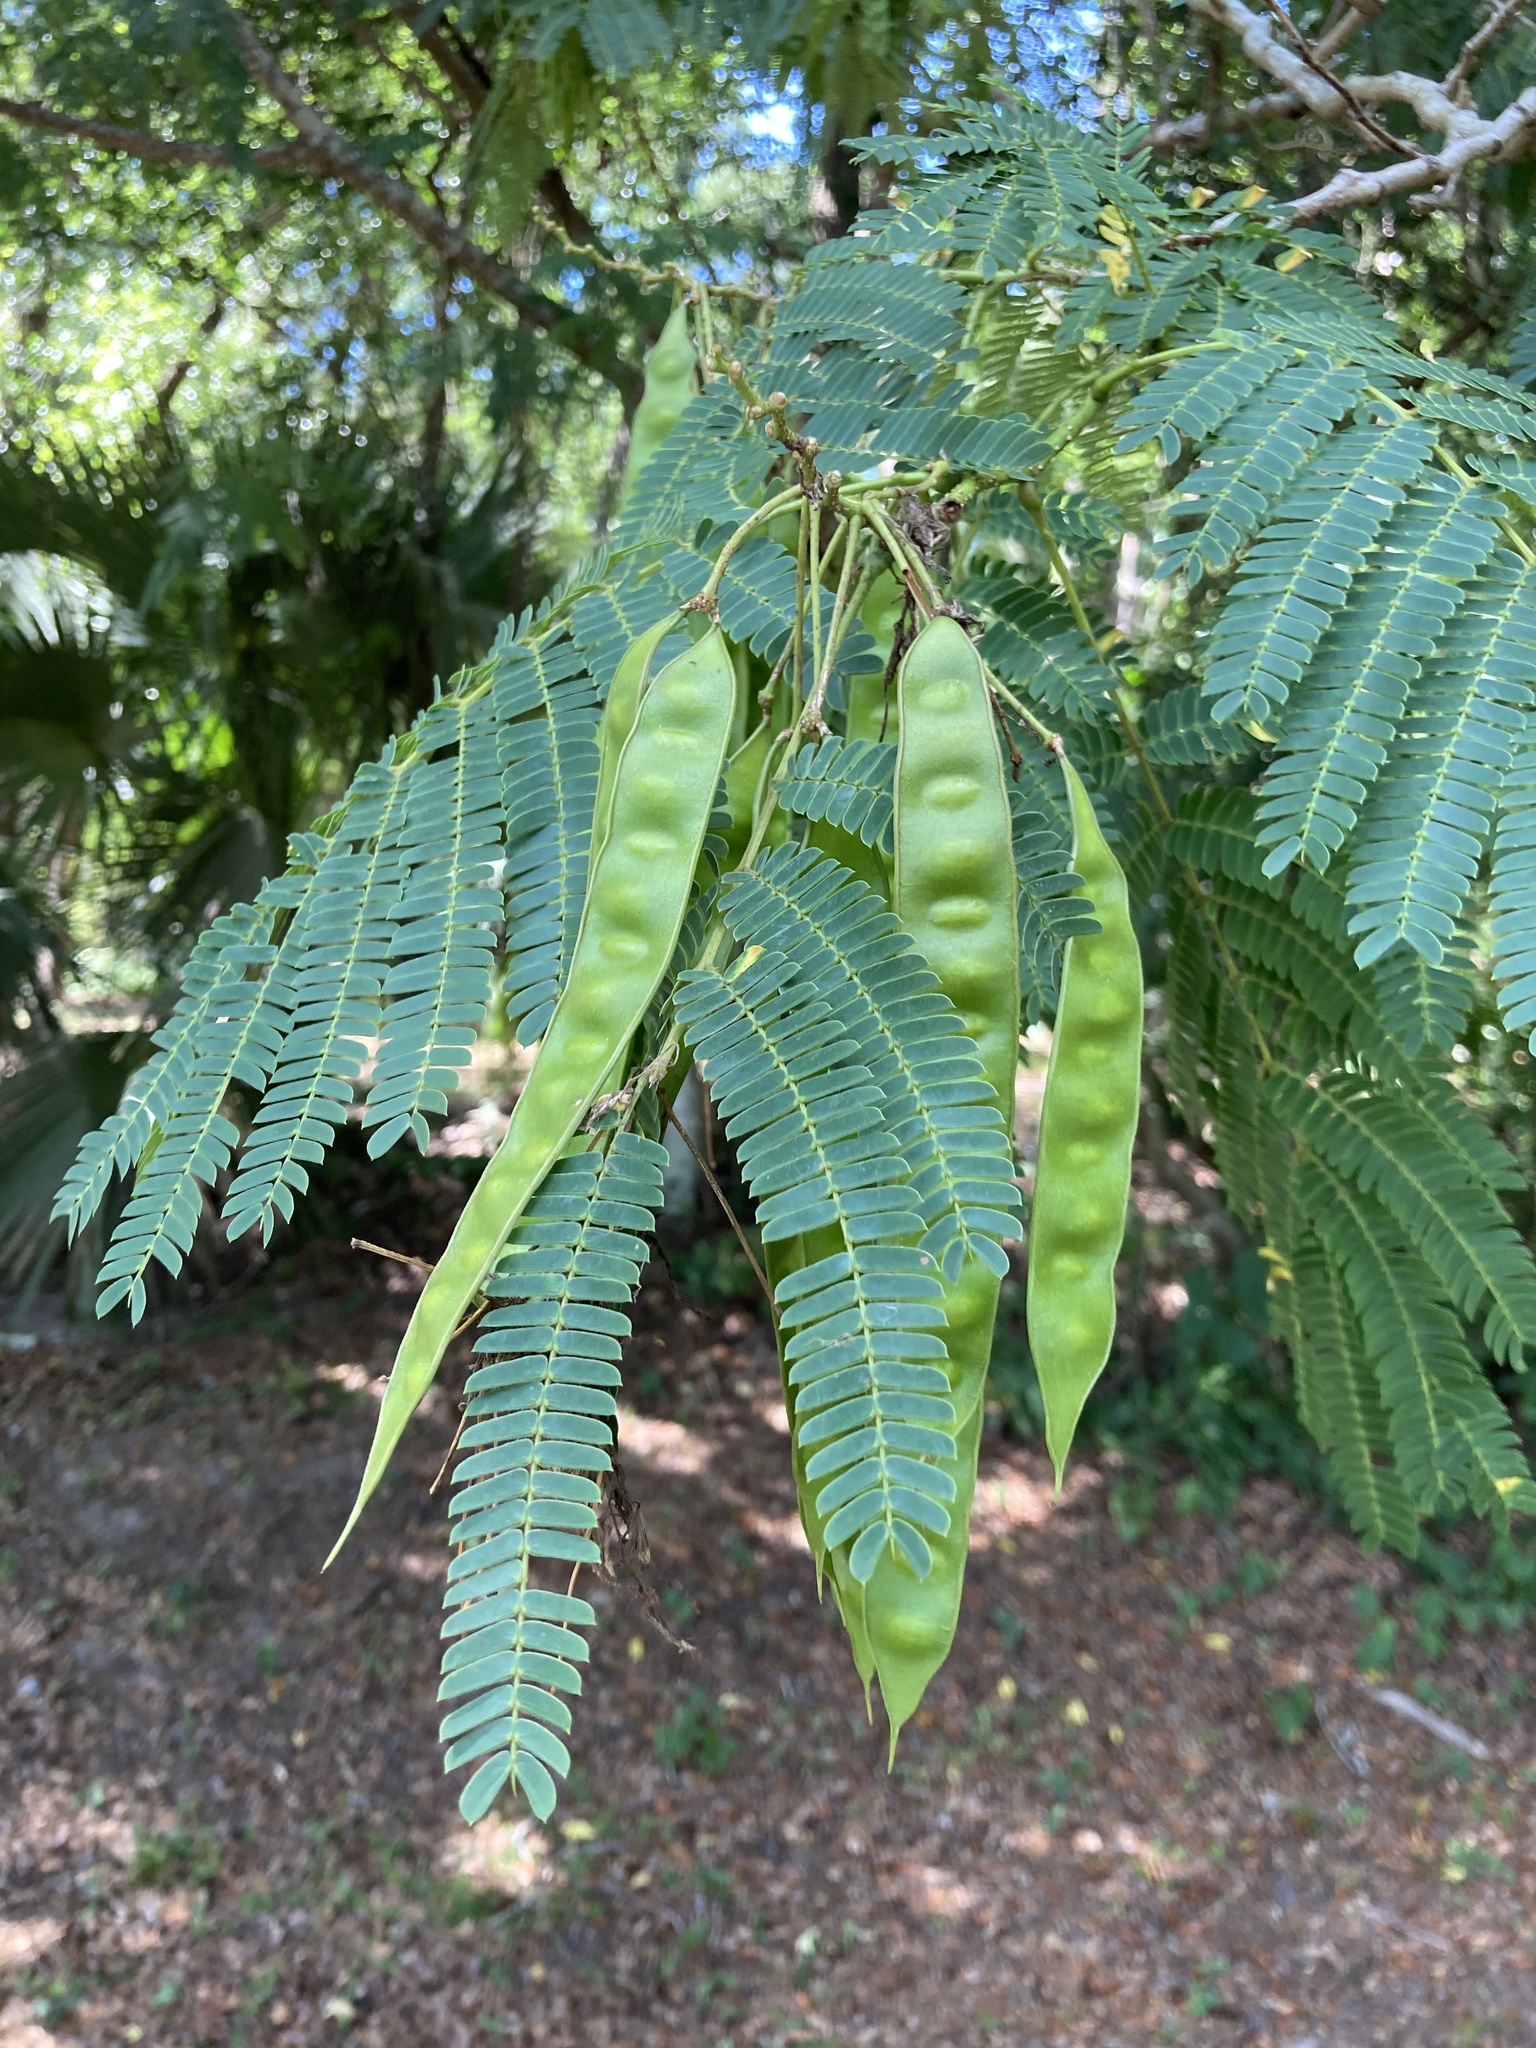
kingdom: Plantae
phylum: Tracheophyta
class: Magnoliopsida
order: Fabales
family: Fabaceae
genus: Albizia
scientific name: Albizia julibrissin
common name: Silktree
